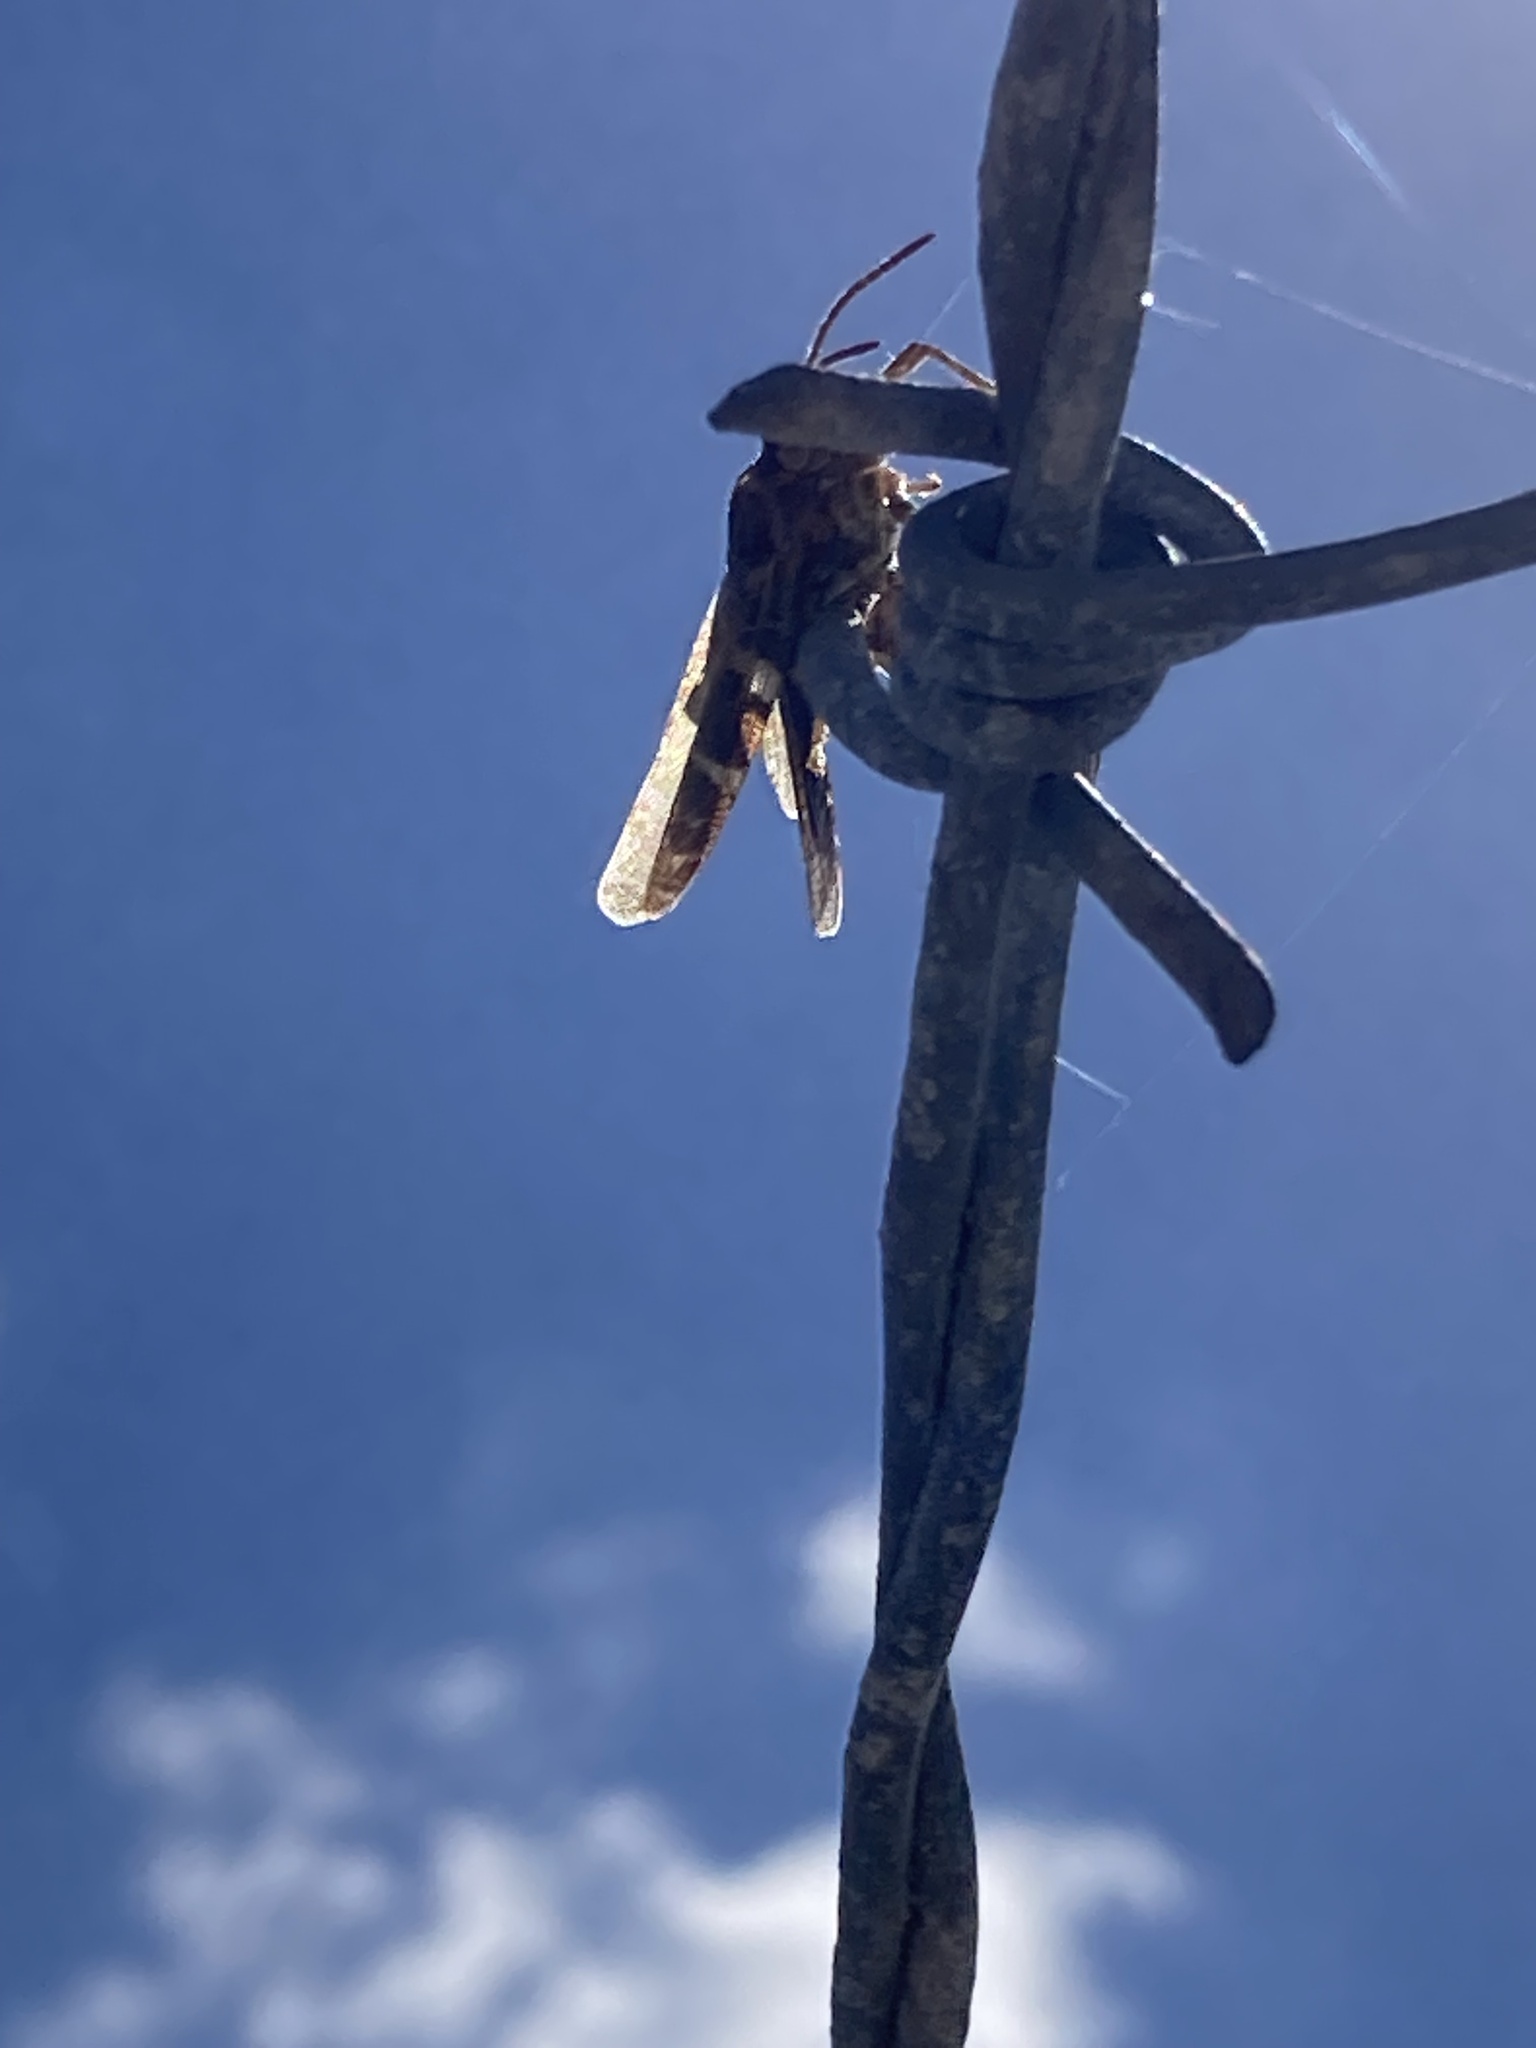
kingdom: Animalia
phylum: Arthropoda
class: Insecta
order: Orthoptera
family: Acrididae
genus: Chortophaga
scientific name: Chortophaga australior
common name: Southern green-striped grasshopper
